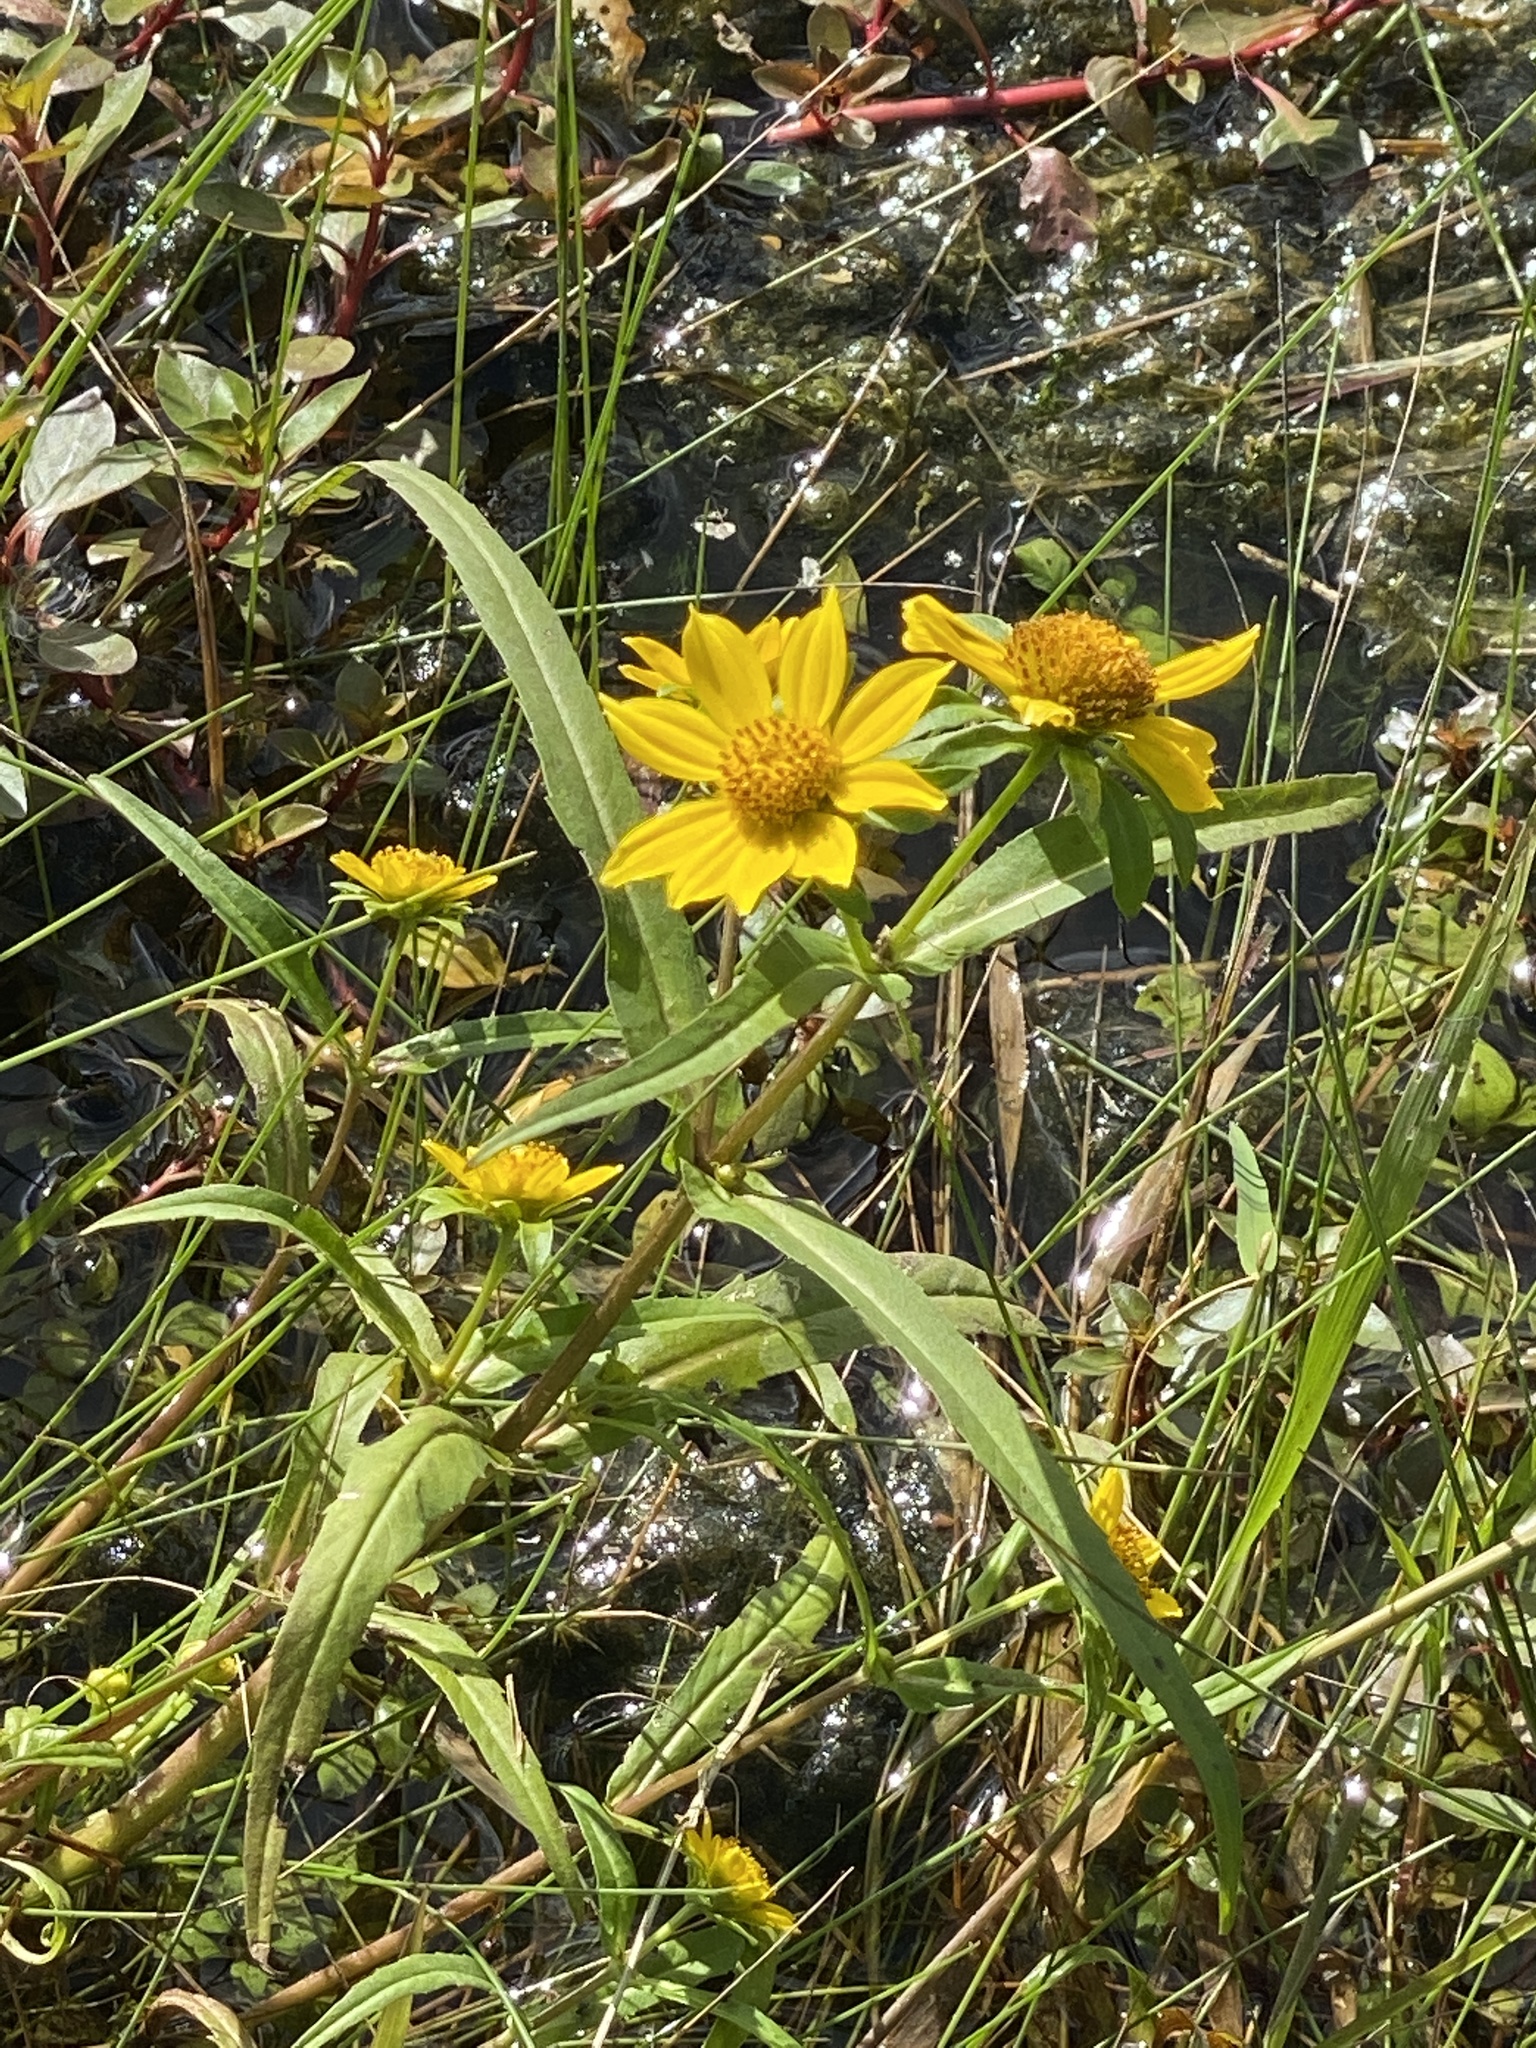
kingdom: Plantae
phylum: Tracheophyta
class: Magnoliopsida
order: Asterales
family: Asteraceae
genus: Bidens
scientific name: Bidens cernua
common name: Nodding bur-marigold
